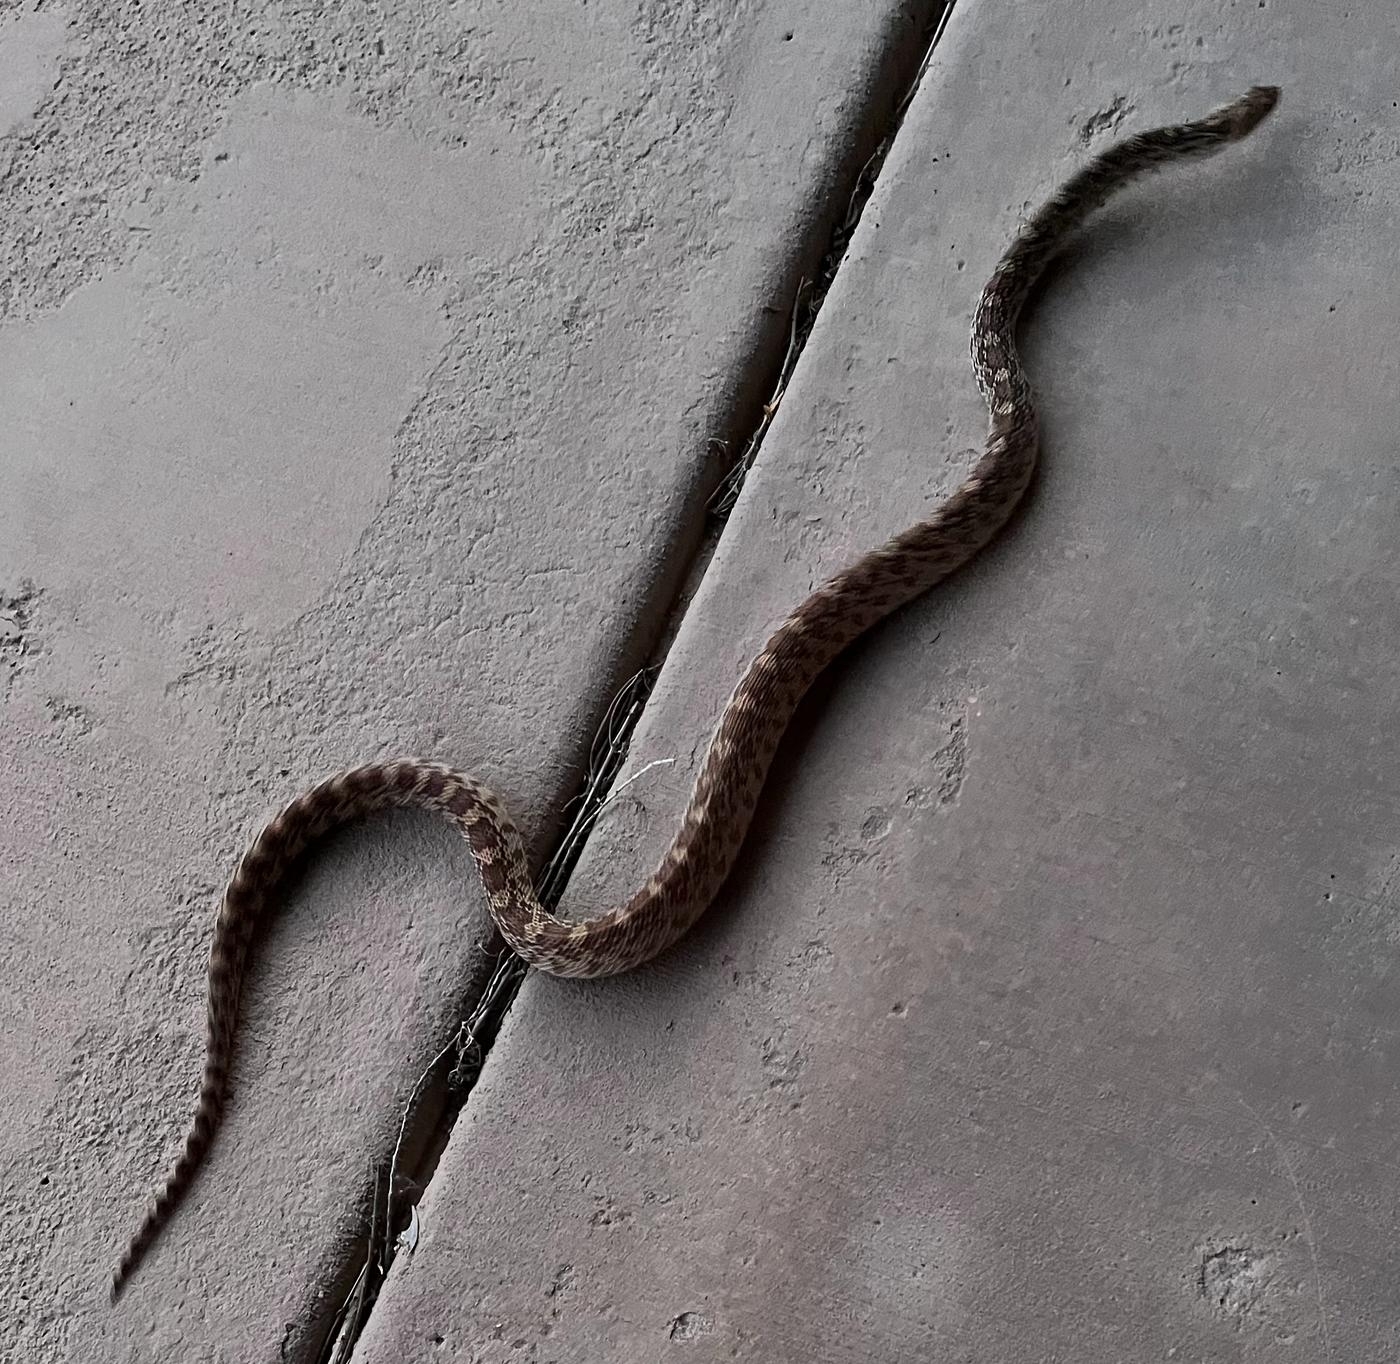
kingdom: Animalia
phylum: Chordata
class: Squamata
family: Colubridae
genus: Pituophis
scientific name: Pituophis catenifer
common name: Gopher snake
